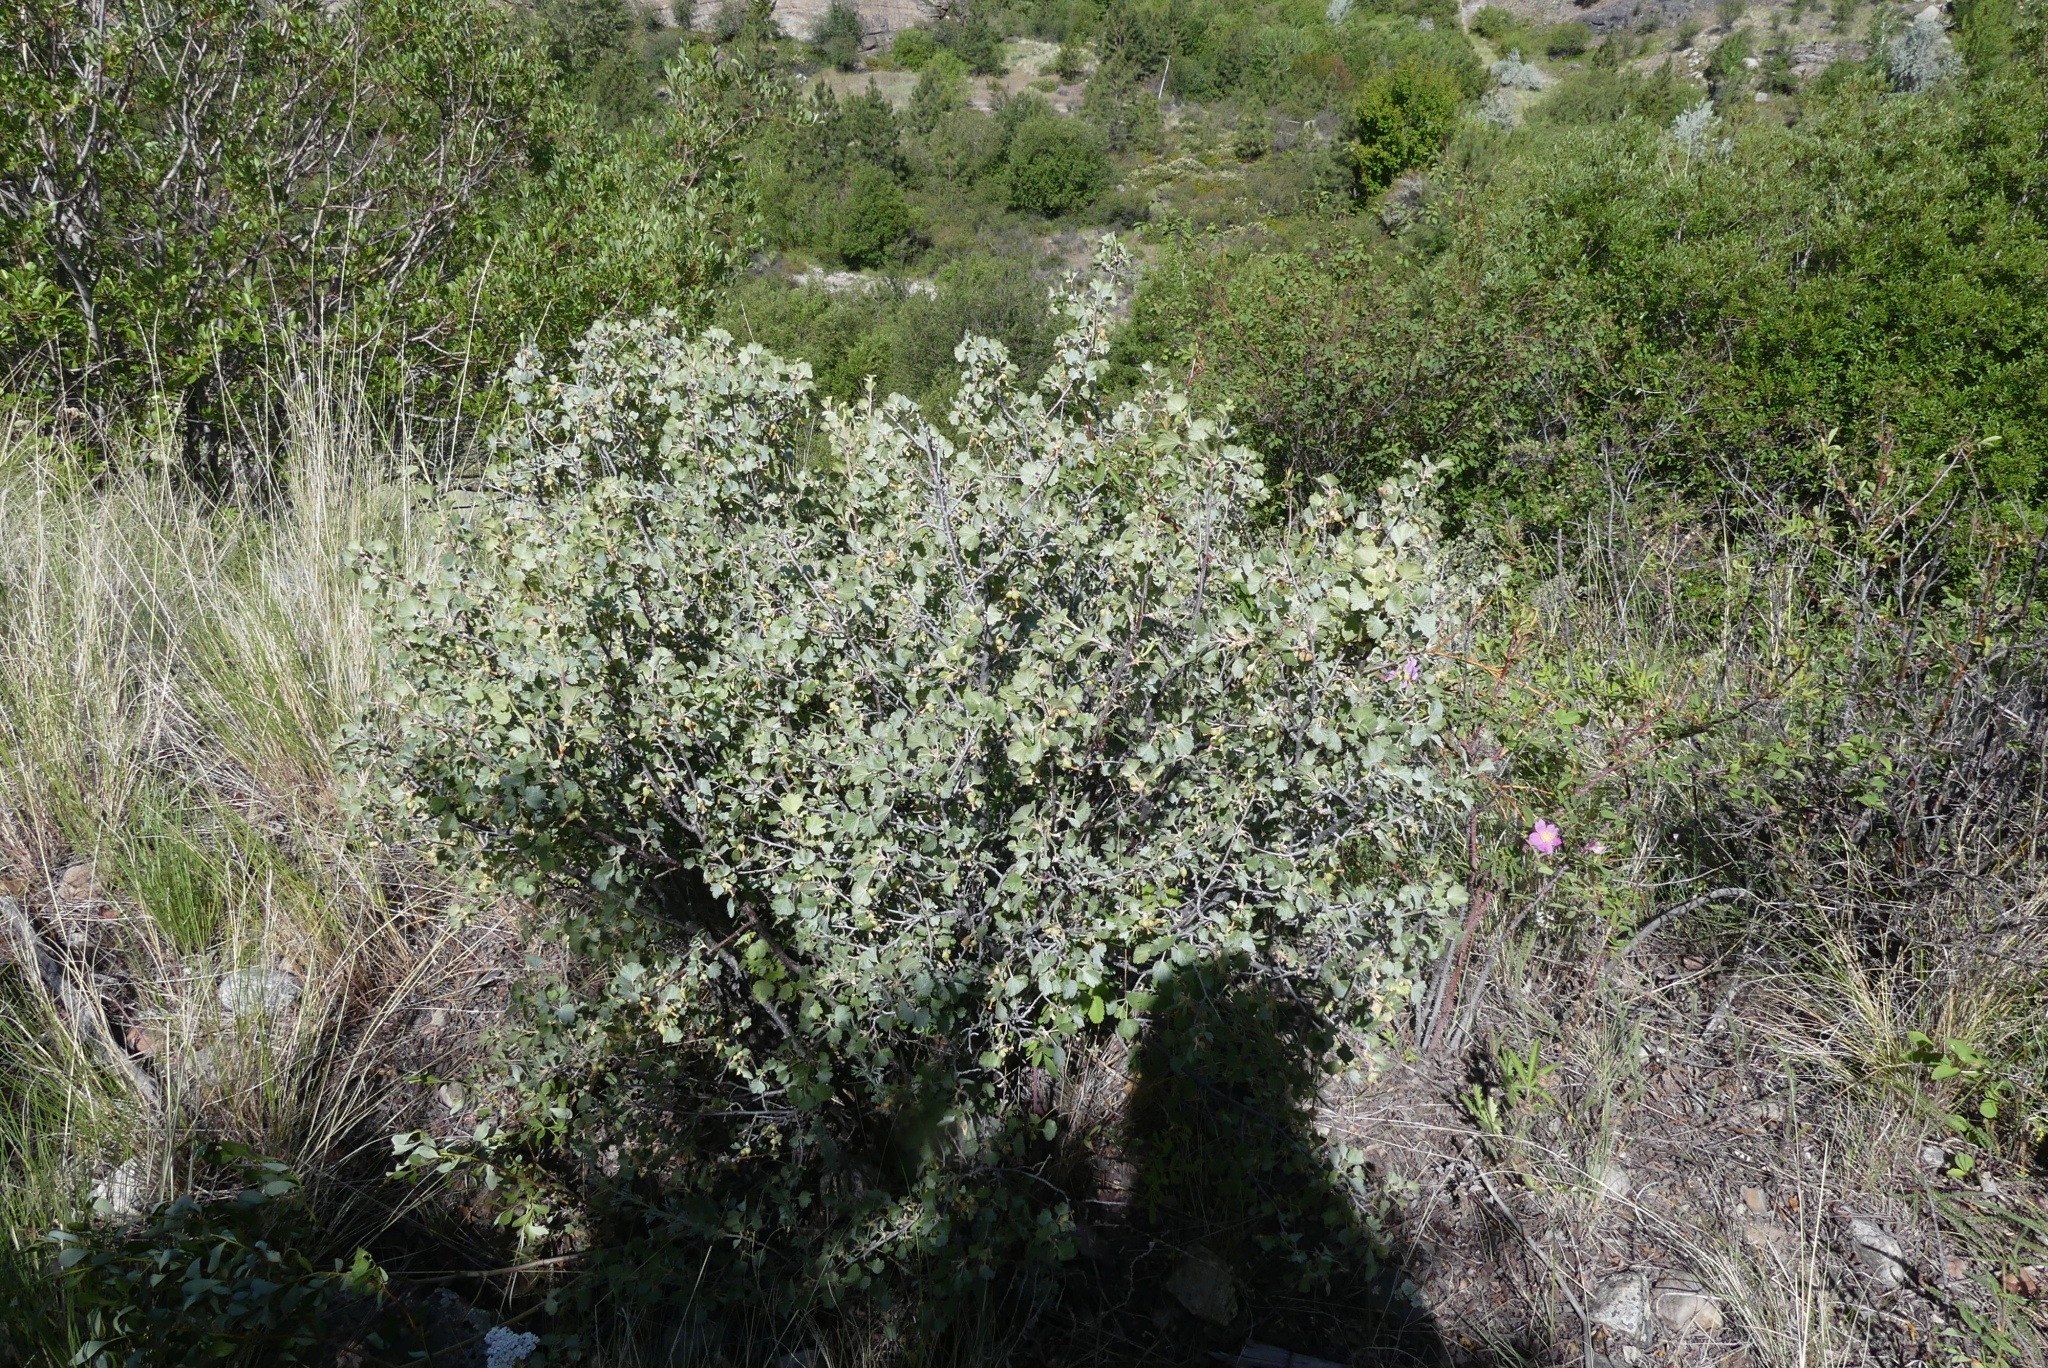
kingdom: Plantae
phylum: Tracheophyta
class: Magnoliopsida
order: Saxifragales
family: Grossulariaceae
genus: Ribes
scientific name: Ribes cereum
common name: Wax currant
